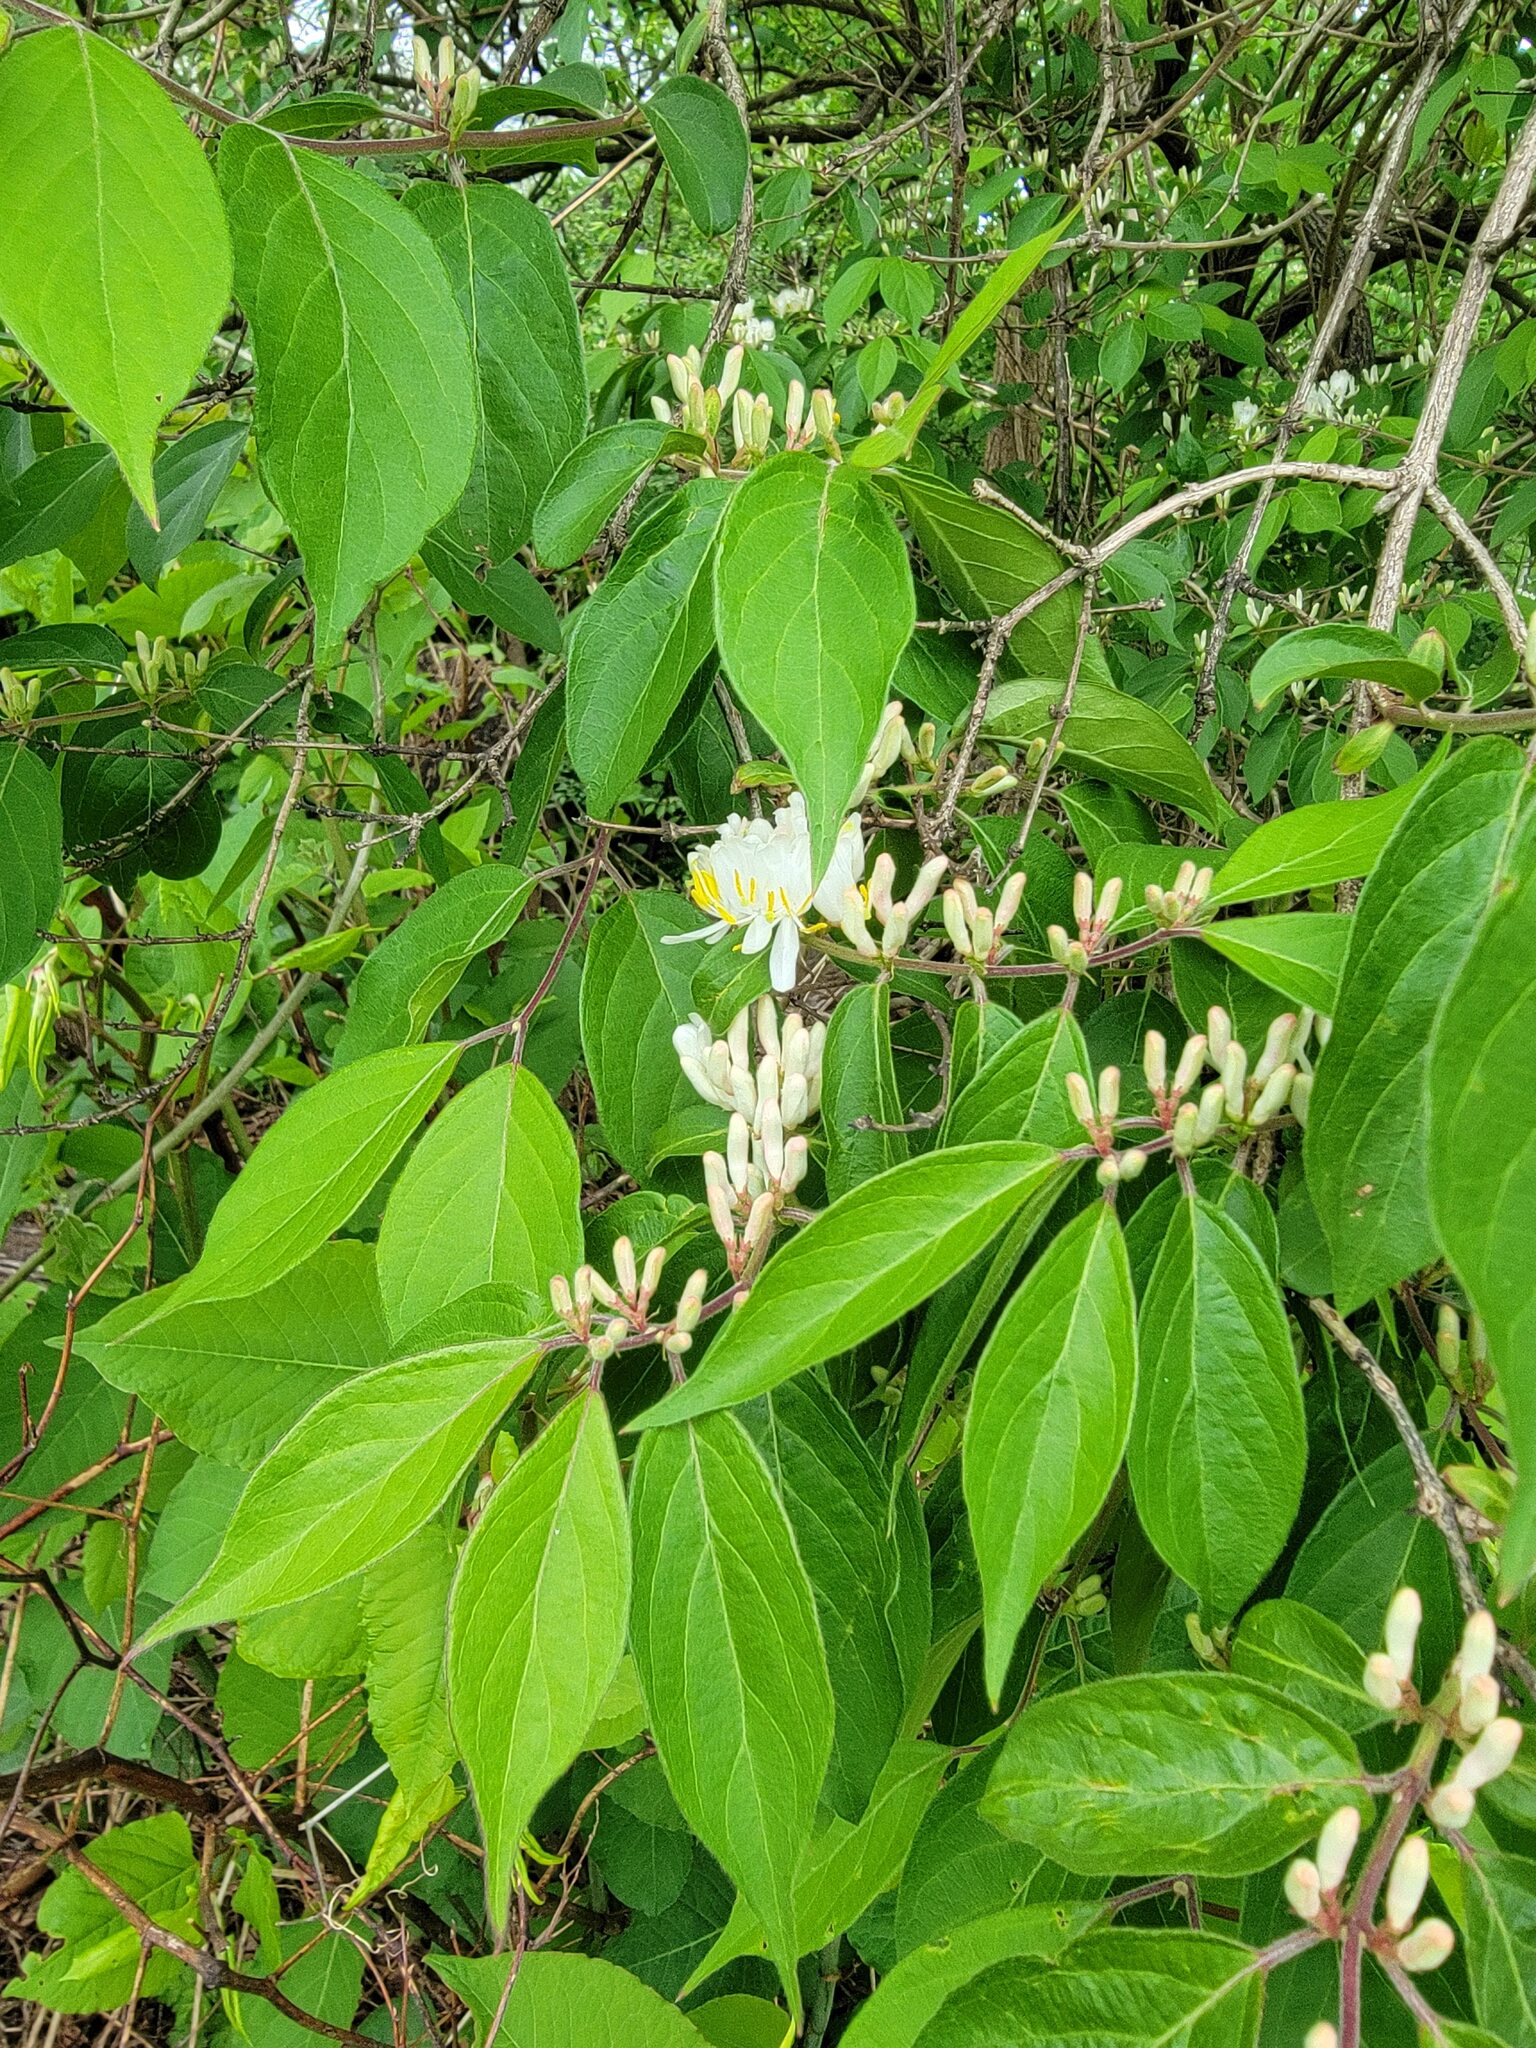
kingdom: Plantae
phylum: Tracheophyta
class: Magnoliopsida
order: Dipsacales
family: Caprifoliaceae
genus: Lonicera
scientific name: Lonicera maackii
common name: Amur honeysuckle
